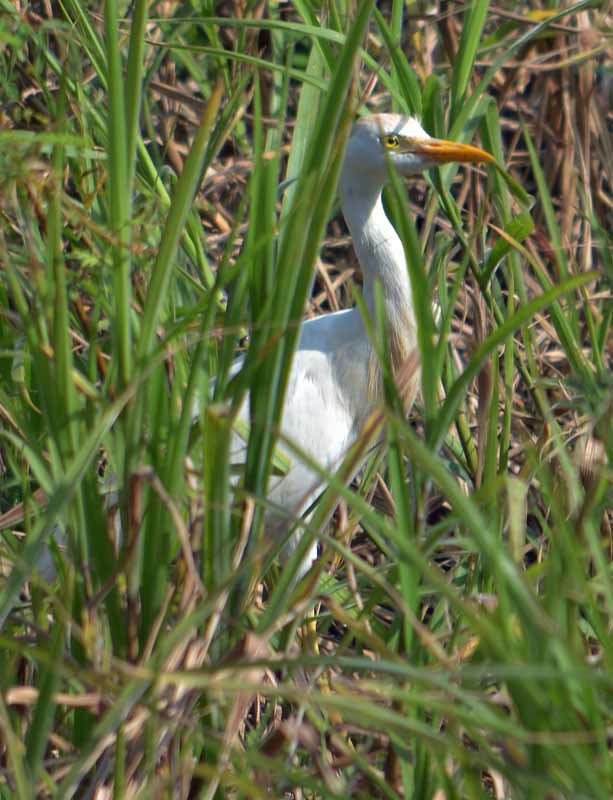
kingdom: Animalia
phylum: Chordata
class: Aves
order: Pelecaniformes
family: Ardeidae
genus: Bubulcus
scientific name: Bubulcus ibis
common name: Cattle egret
